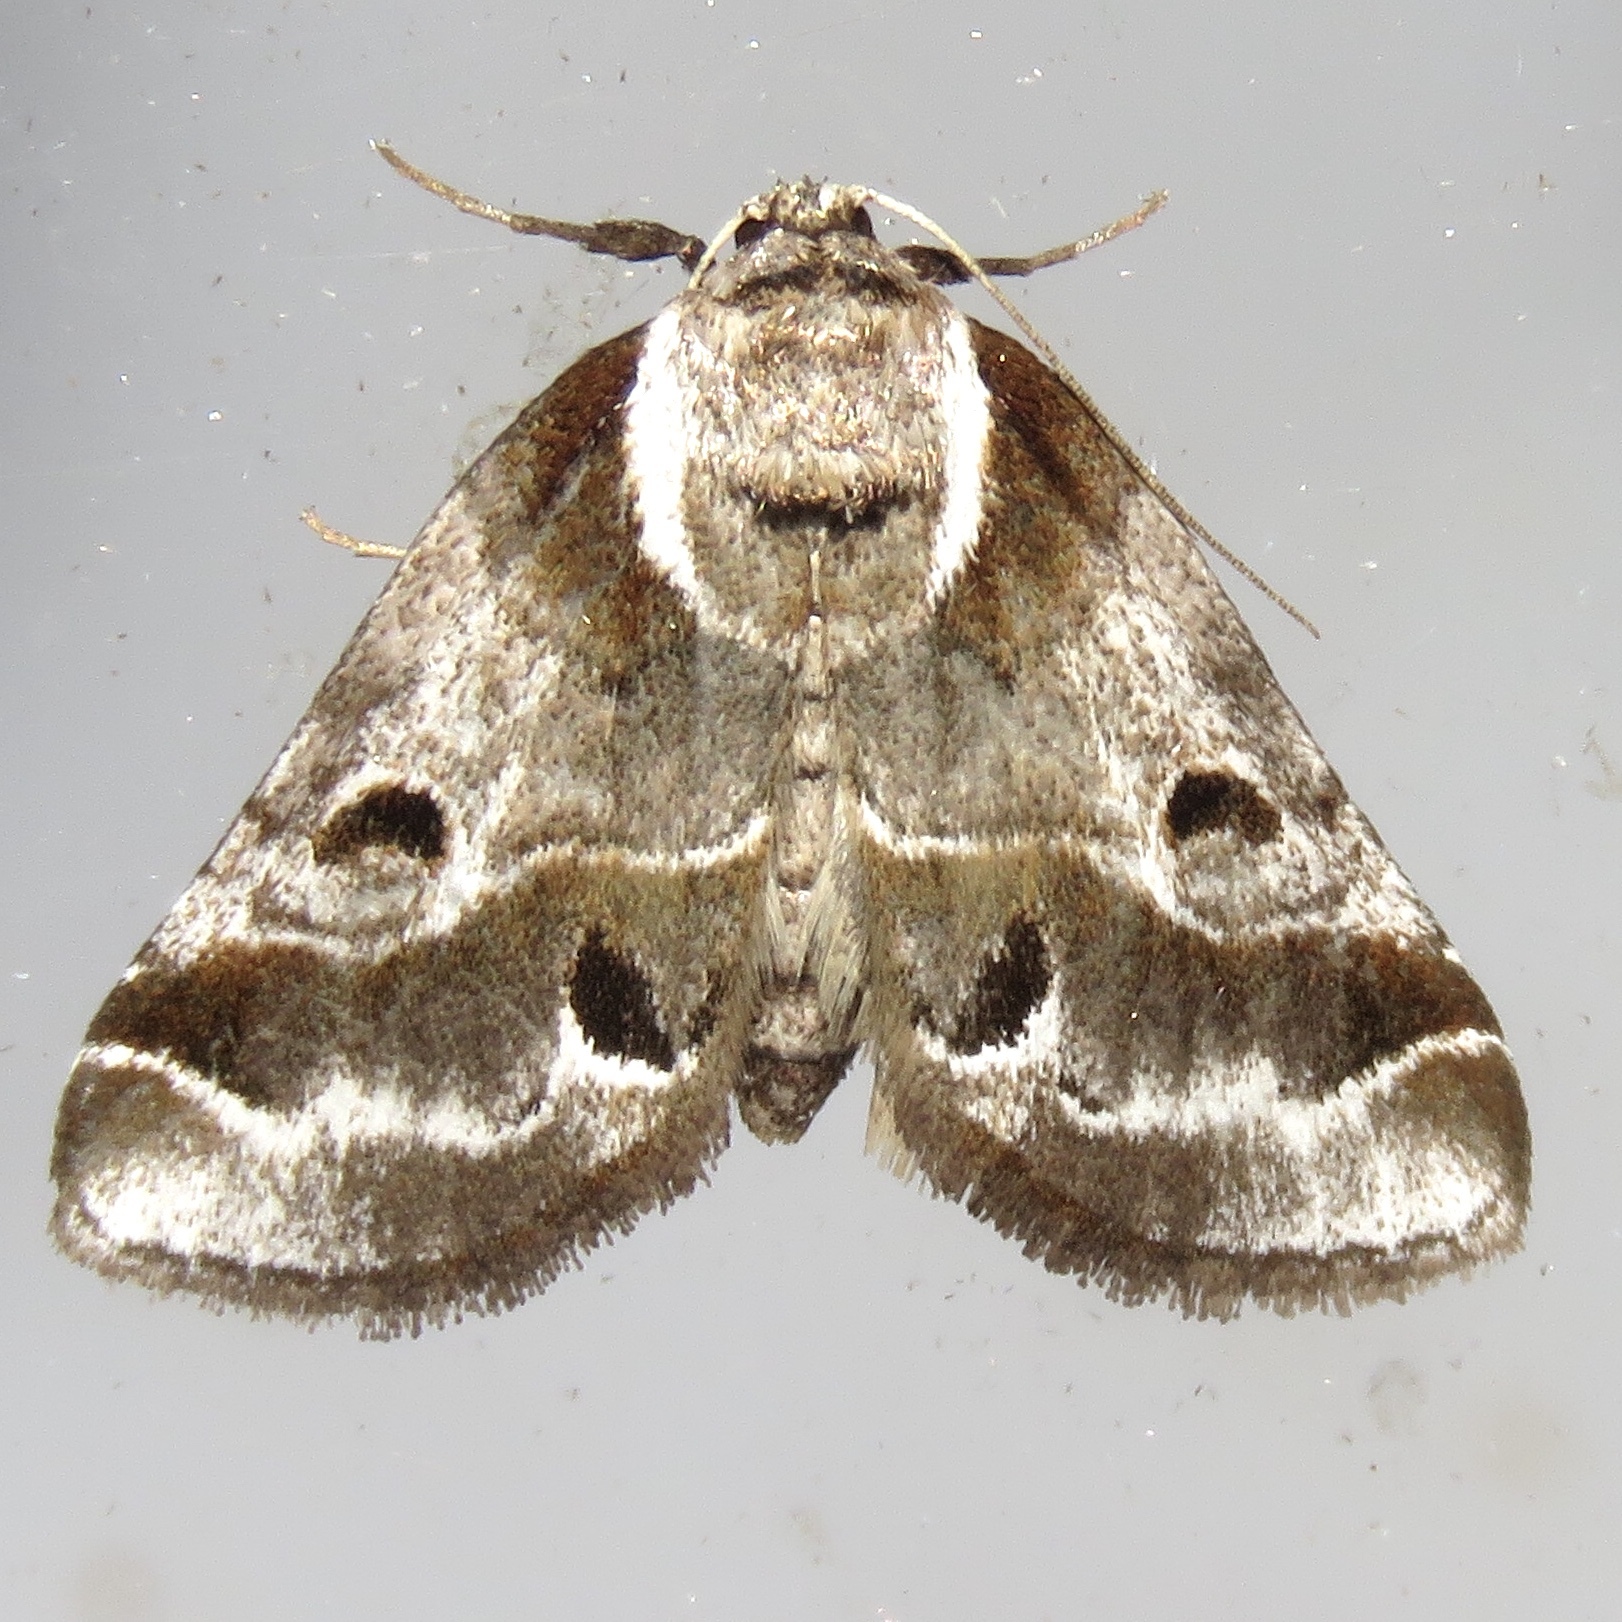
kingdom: Animalia
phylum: Arthropoda
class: Insecta
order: Lepidoptera
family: Nolidae
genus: Baileya
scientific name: Baileya doubledayi
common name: Doubleday's baileya moth
